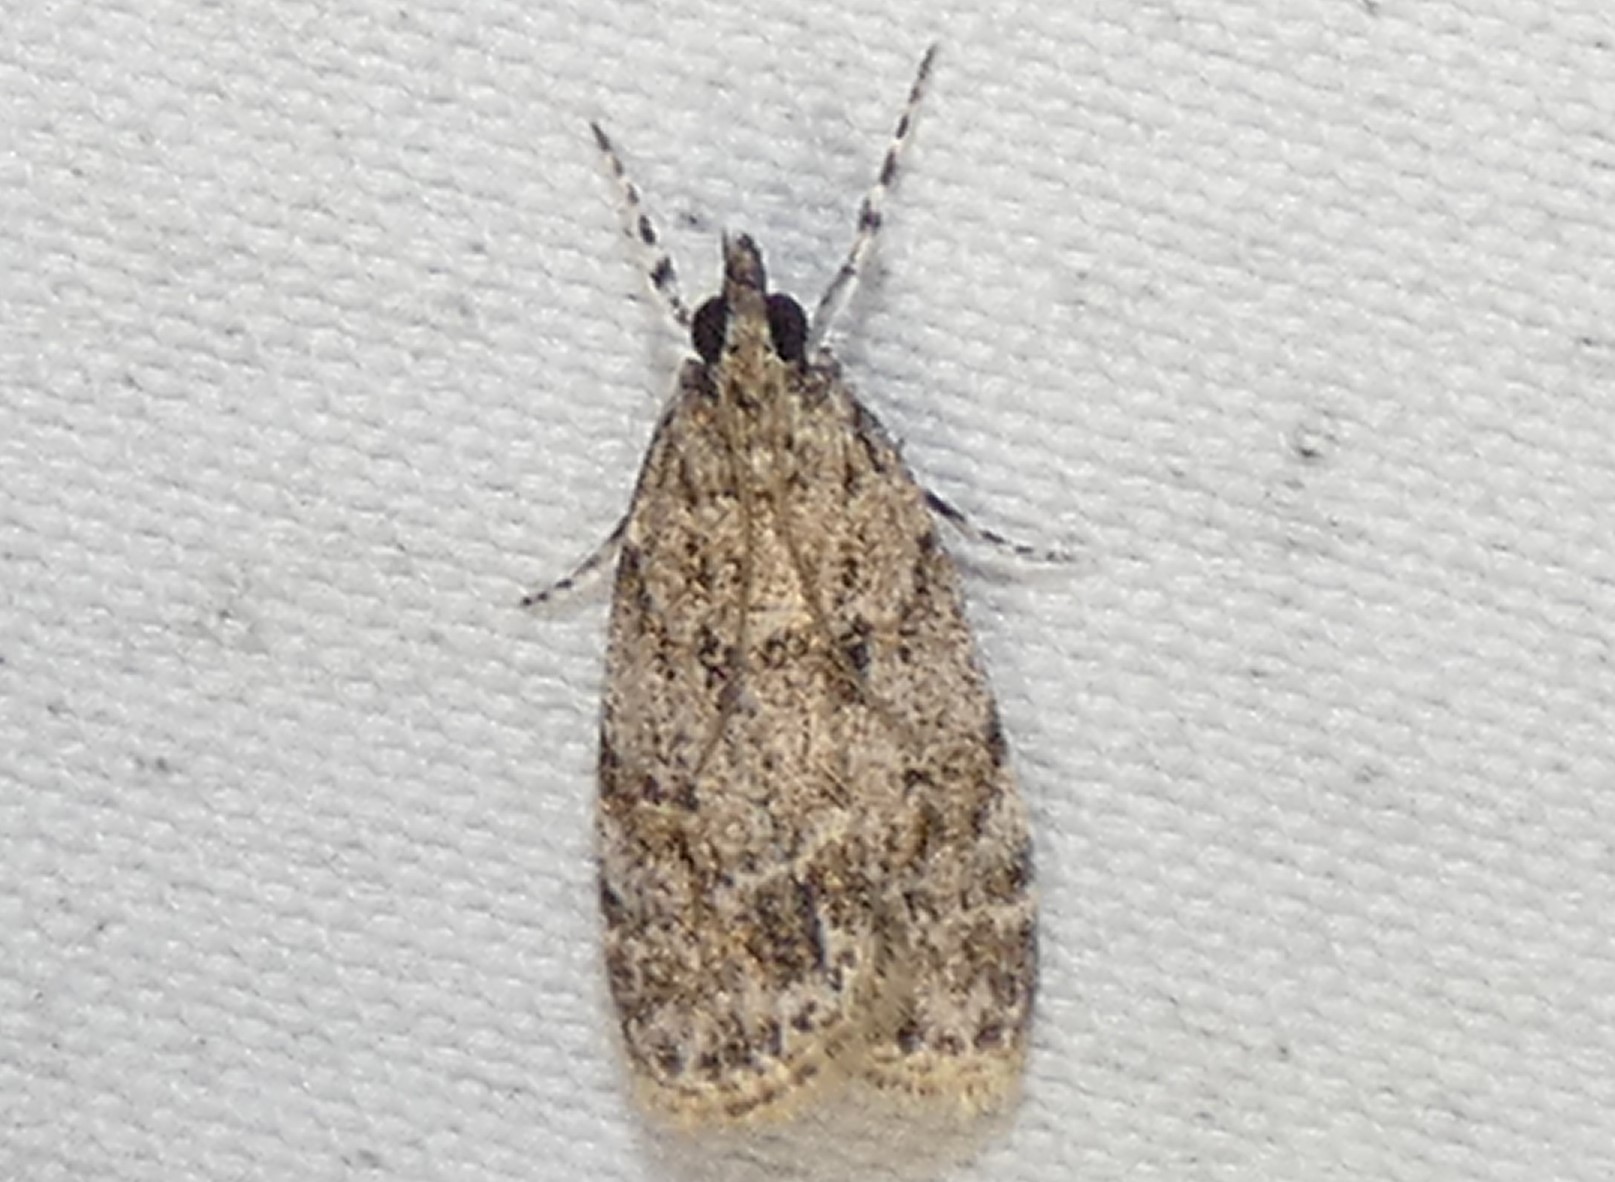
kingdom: Animalia
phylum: Arthropoda
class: Insecta
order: Lepidoptera
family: Crambidae
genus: Scoparia
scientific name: Scoparia biplagialis
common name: Double-striped scoparia moth
